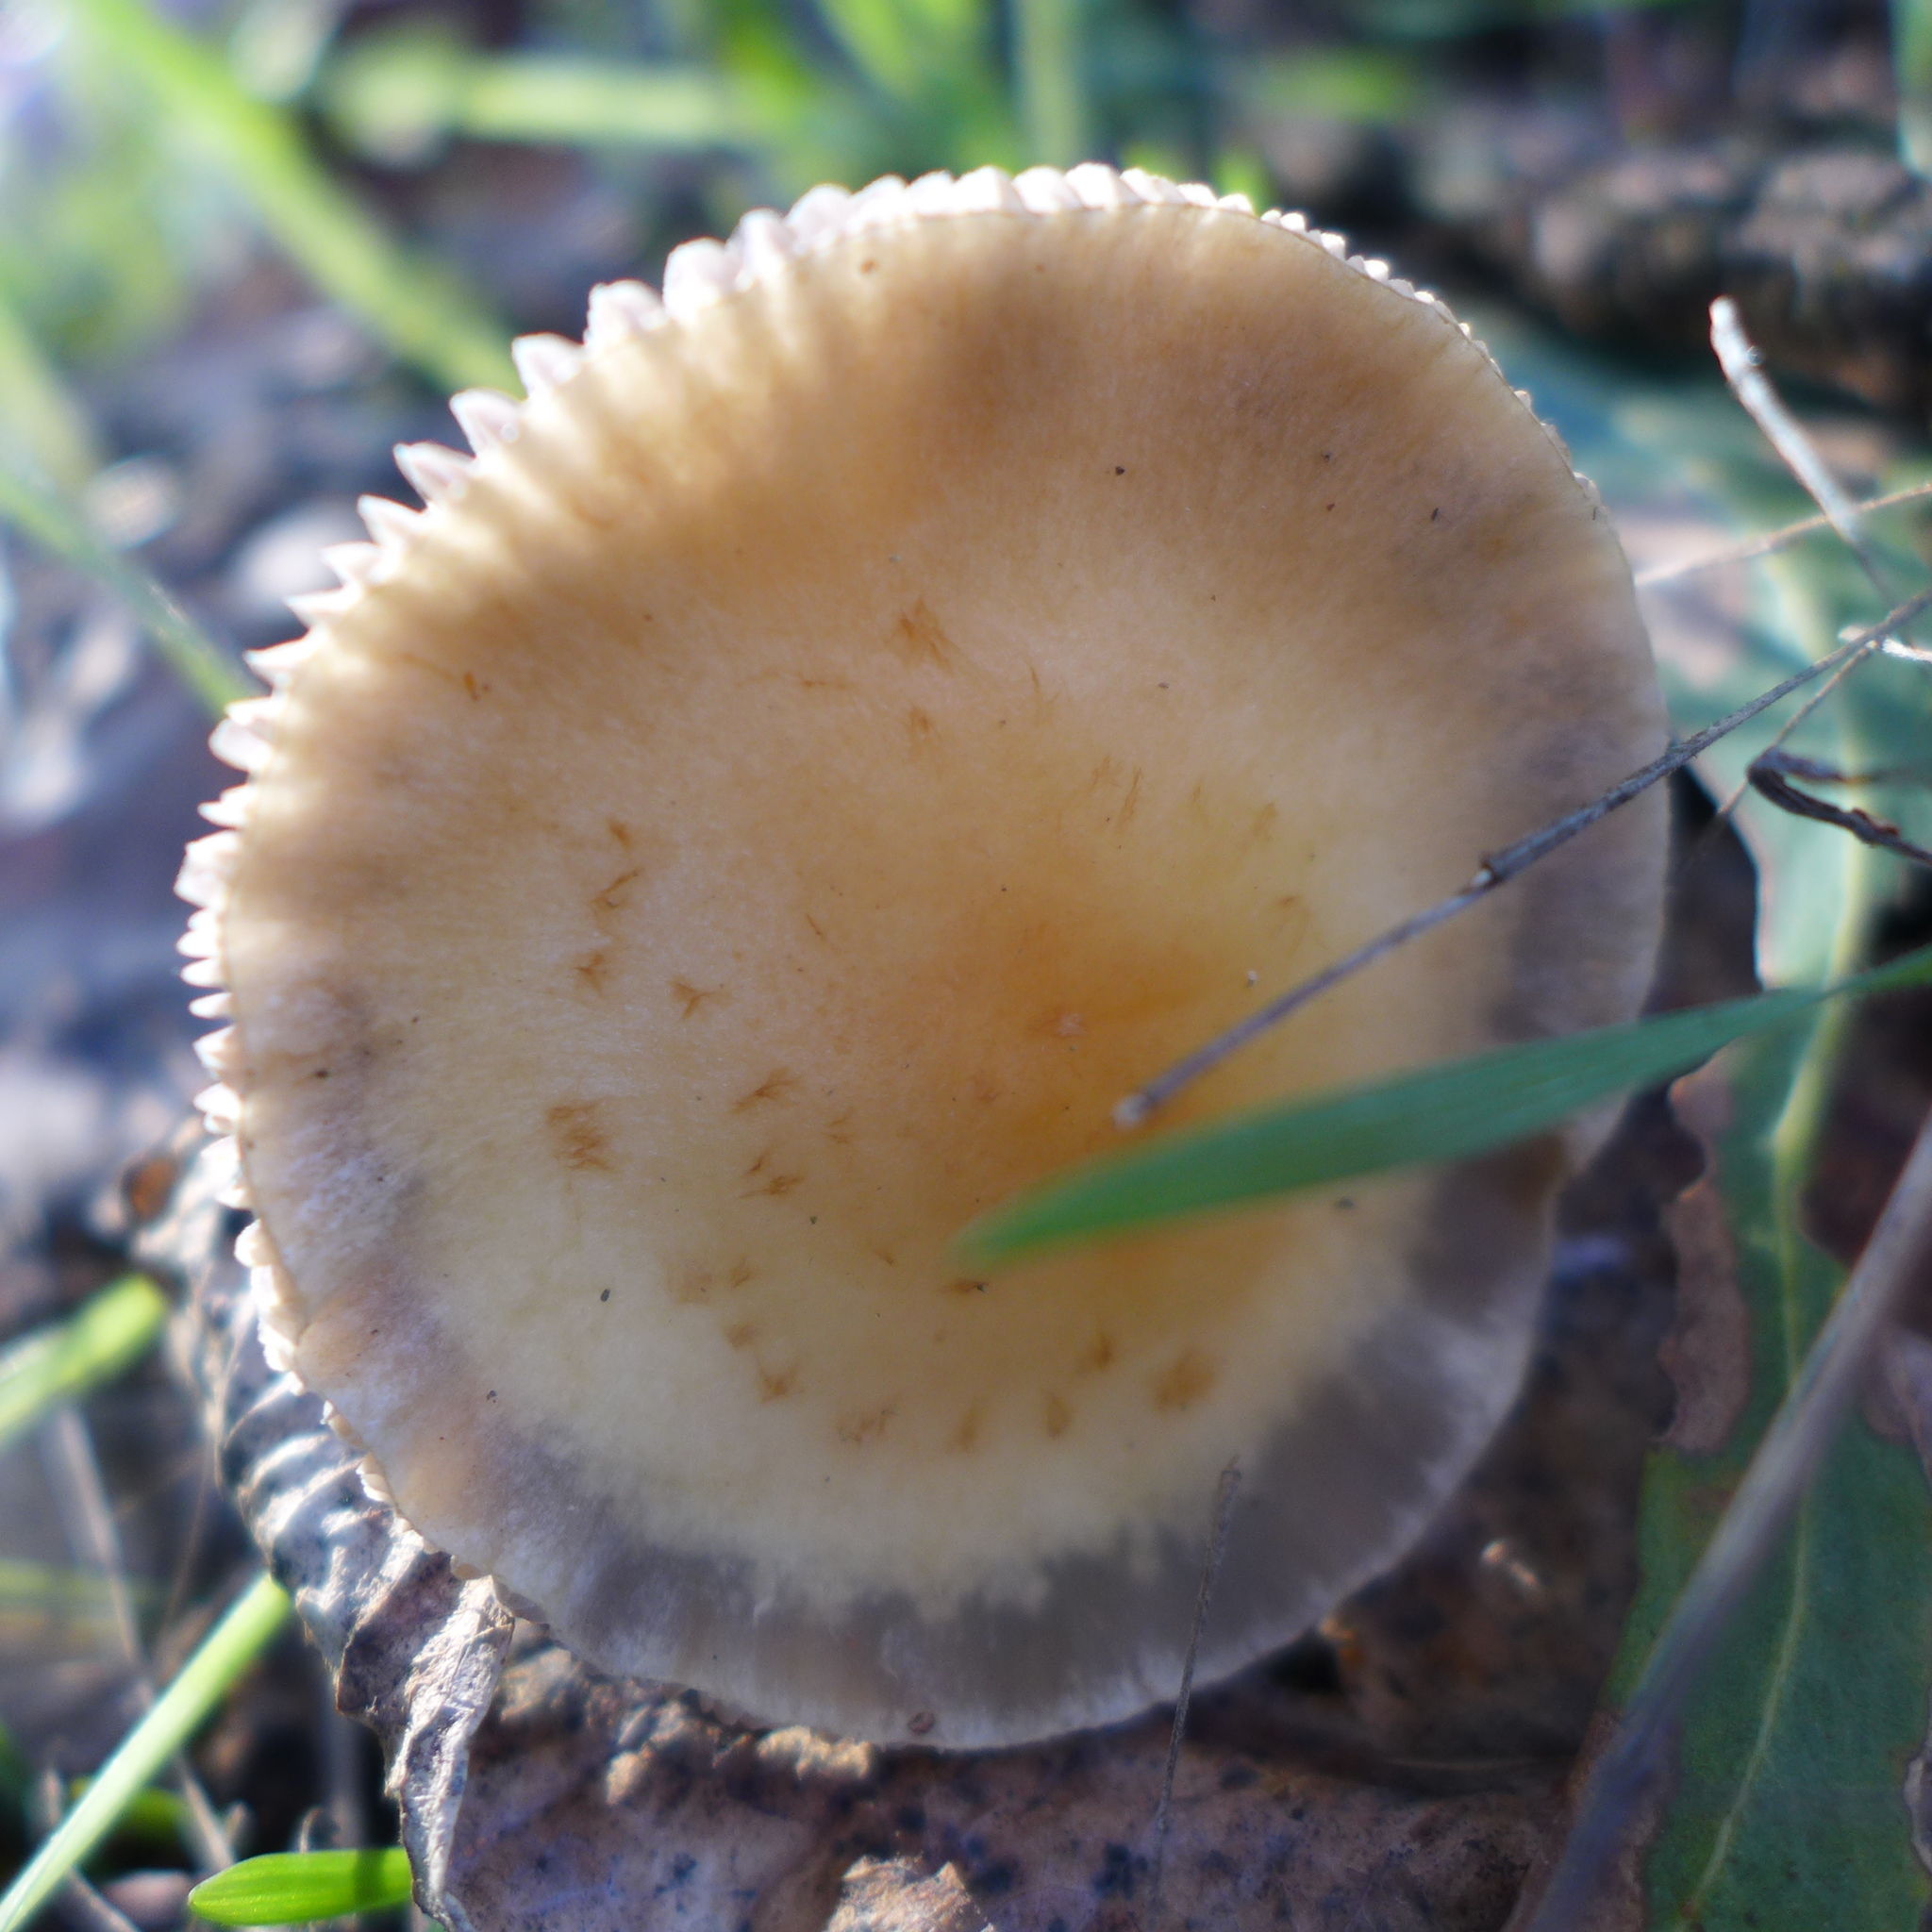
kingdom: Fungi
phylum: Basidiomycota
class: Agaricomycetes
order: Agaricales
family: Strophariaceae
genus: Leratiomyces
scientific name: Leratiomyces percevalii
